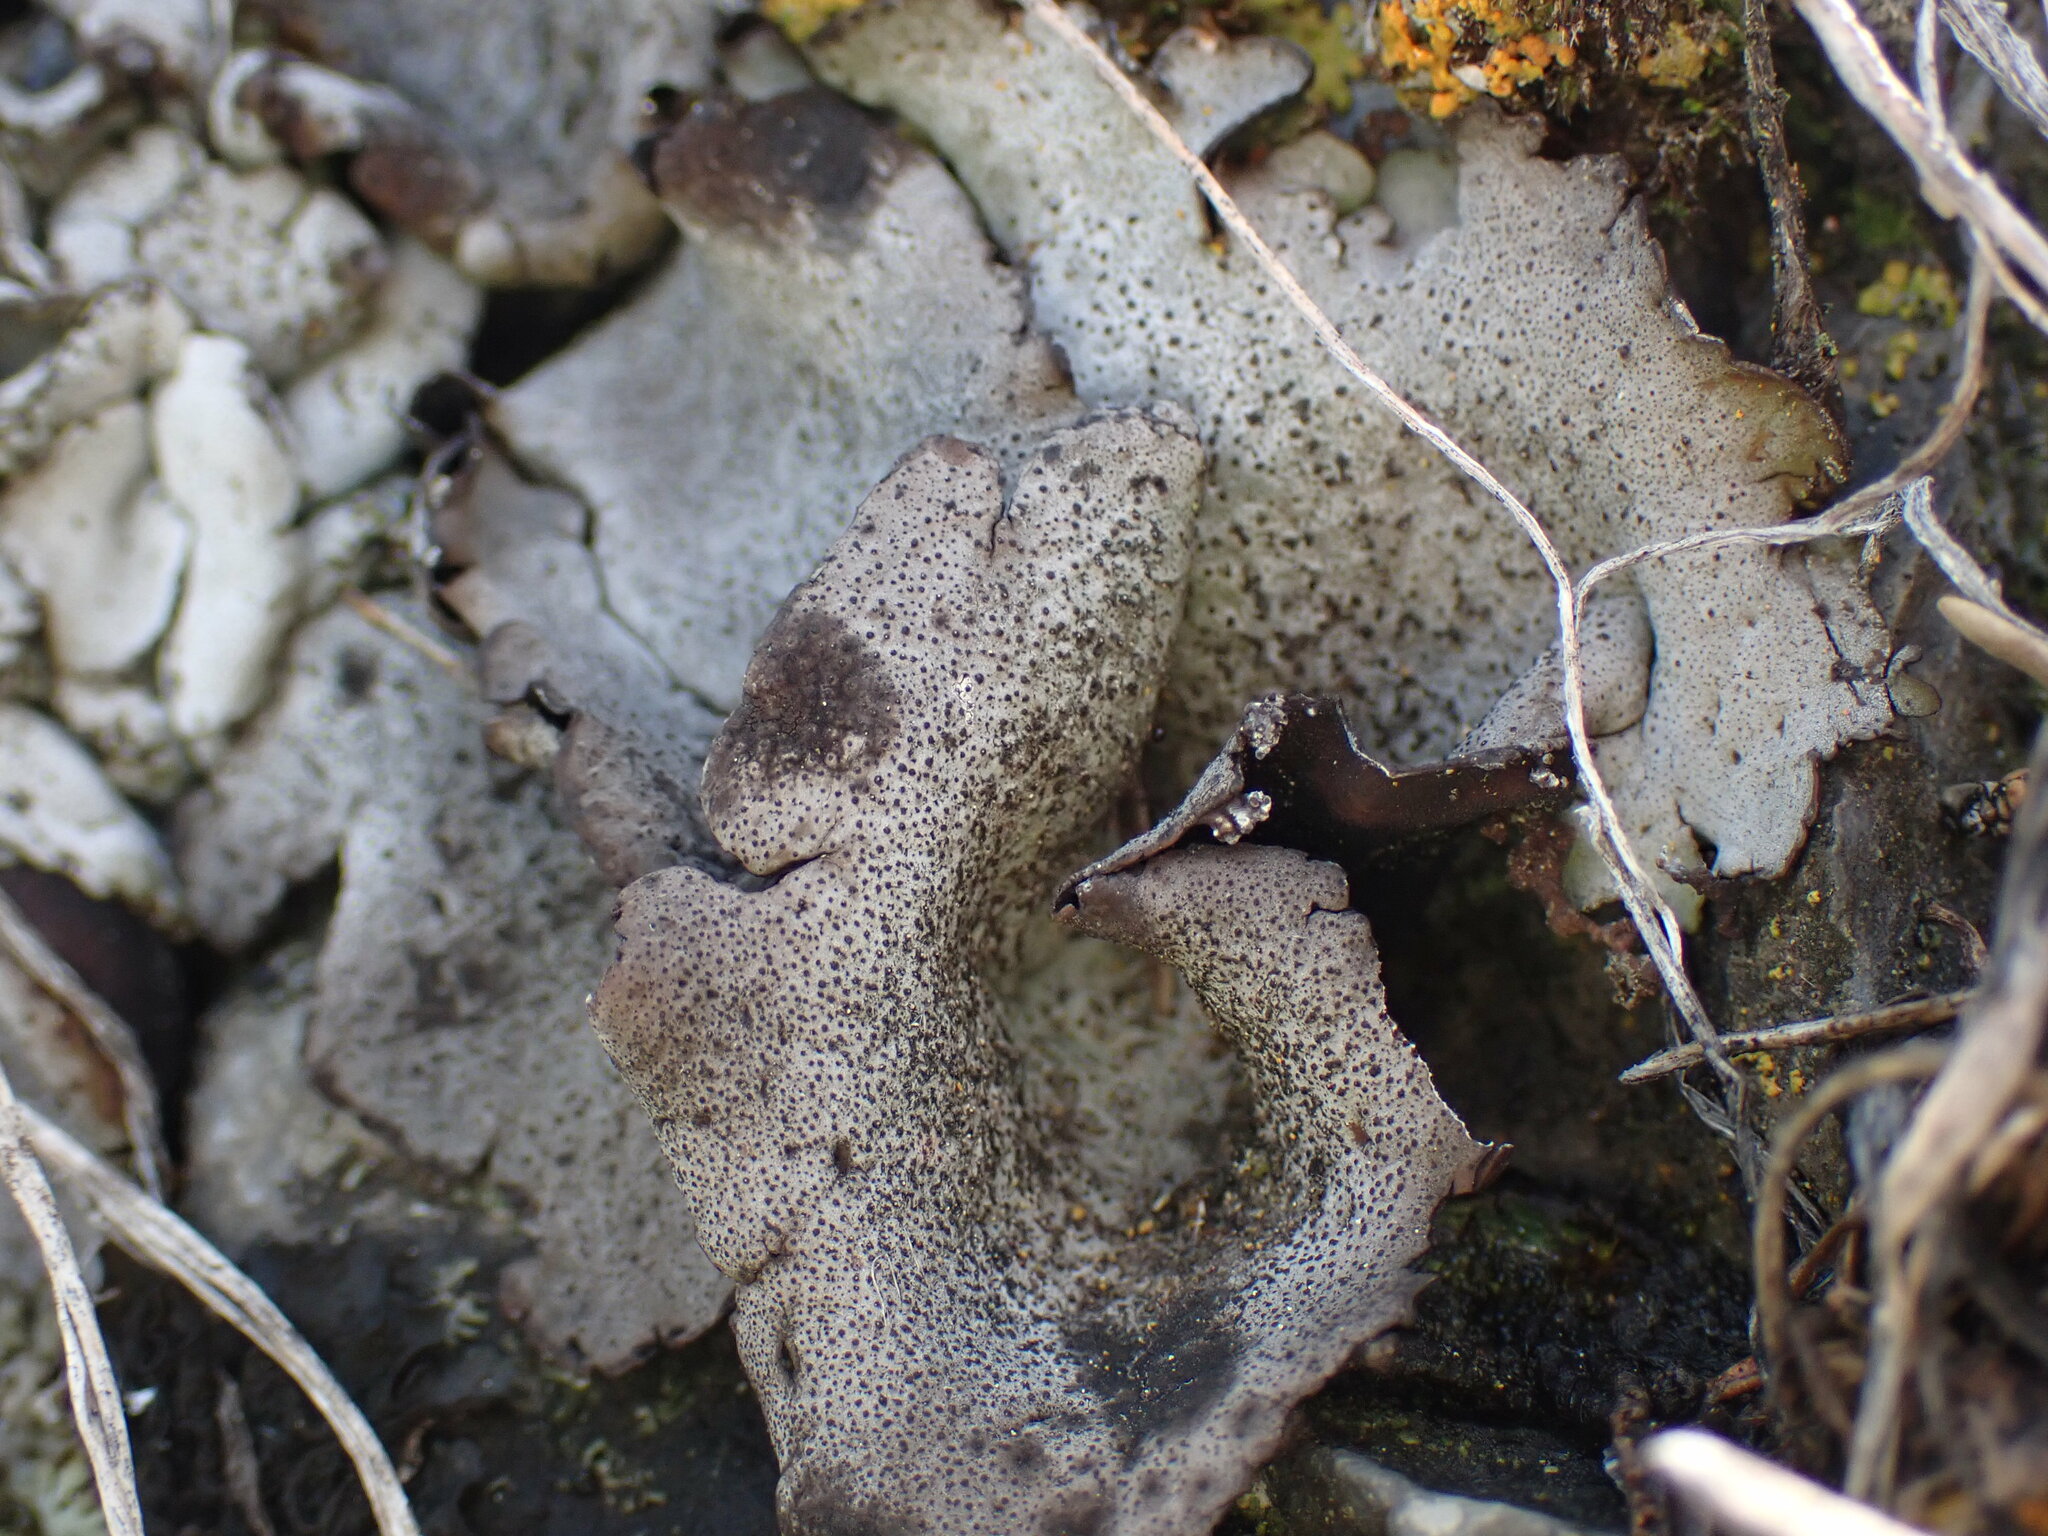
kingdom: Fungi
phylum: Ascomycota
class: Eurotiomycetes
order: Verrucariales
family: Verrucariaceae
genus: Dermatocarpon
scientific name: Dermatocarpon miniatum
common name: Leather lichen
